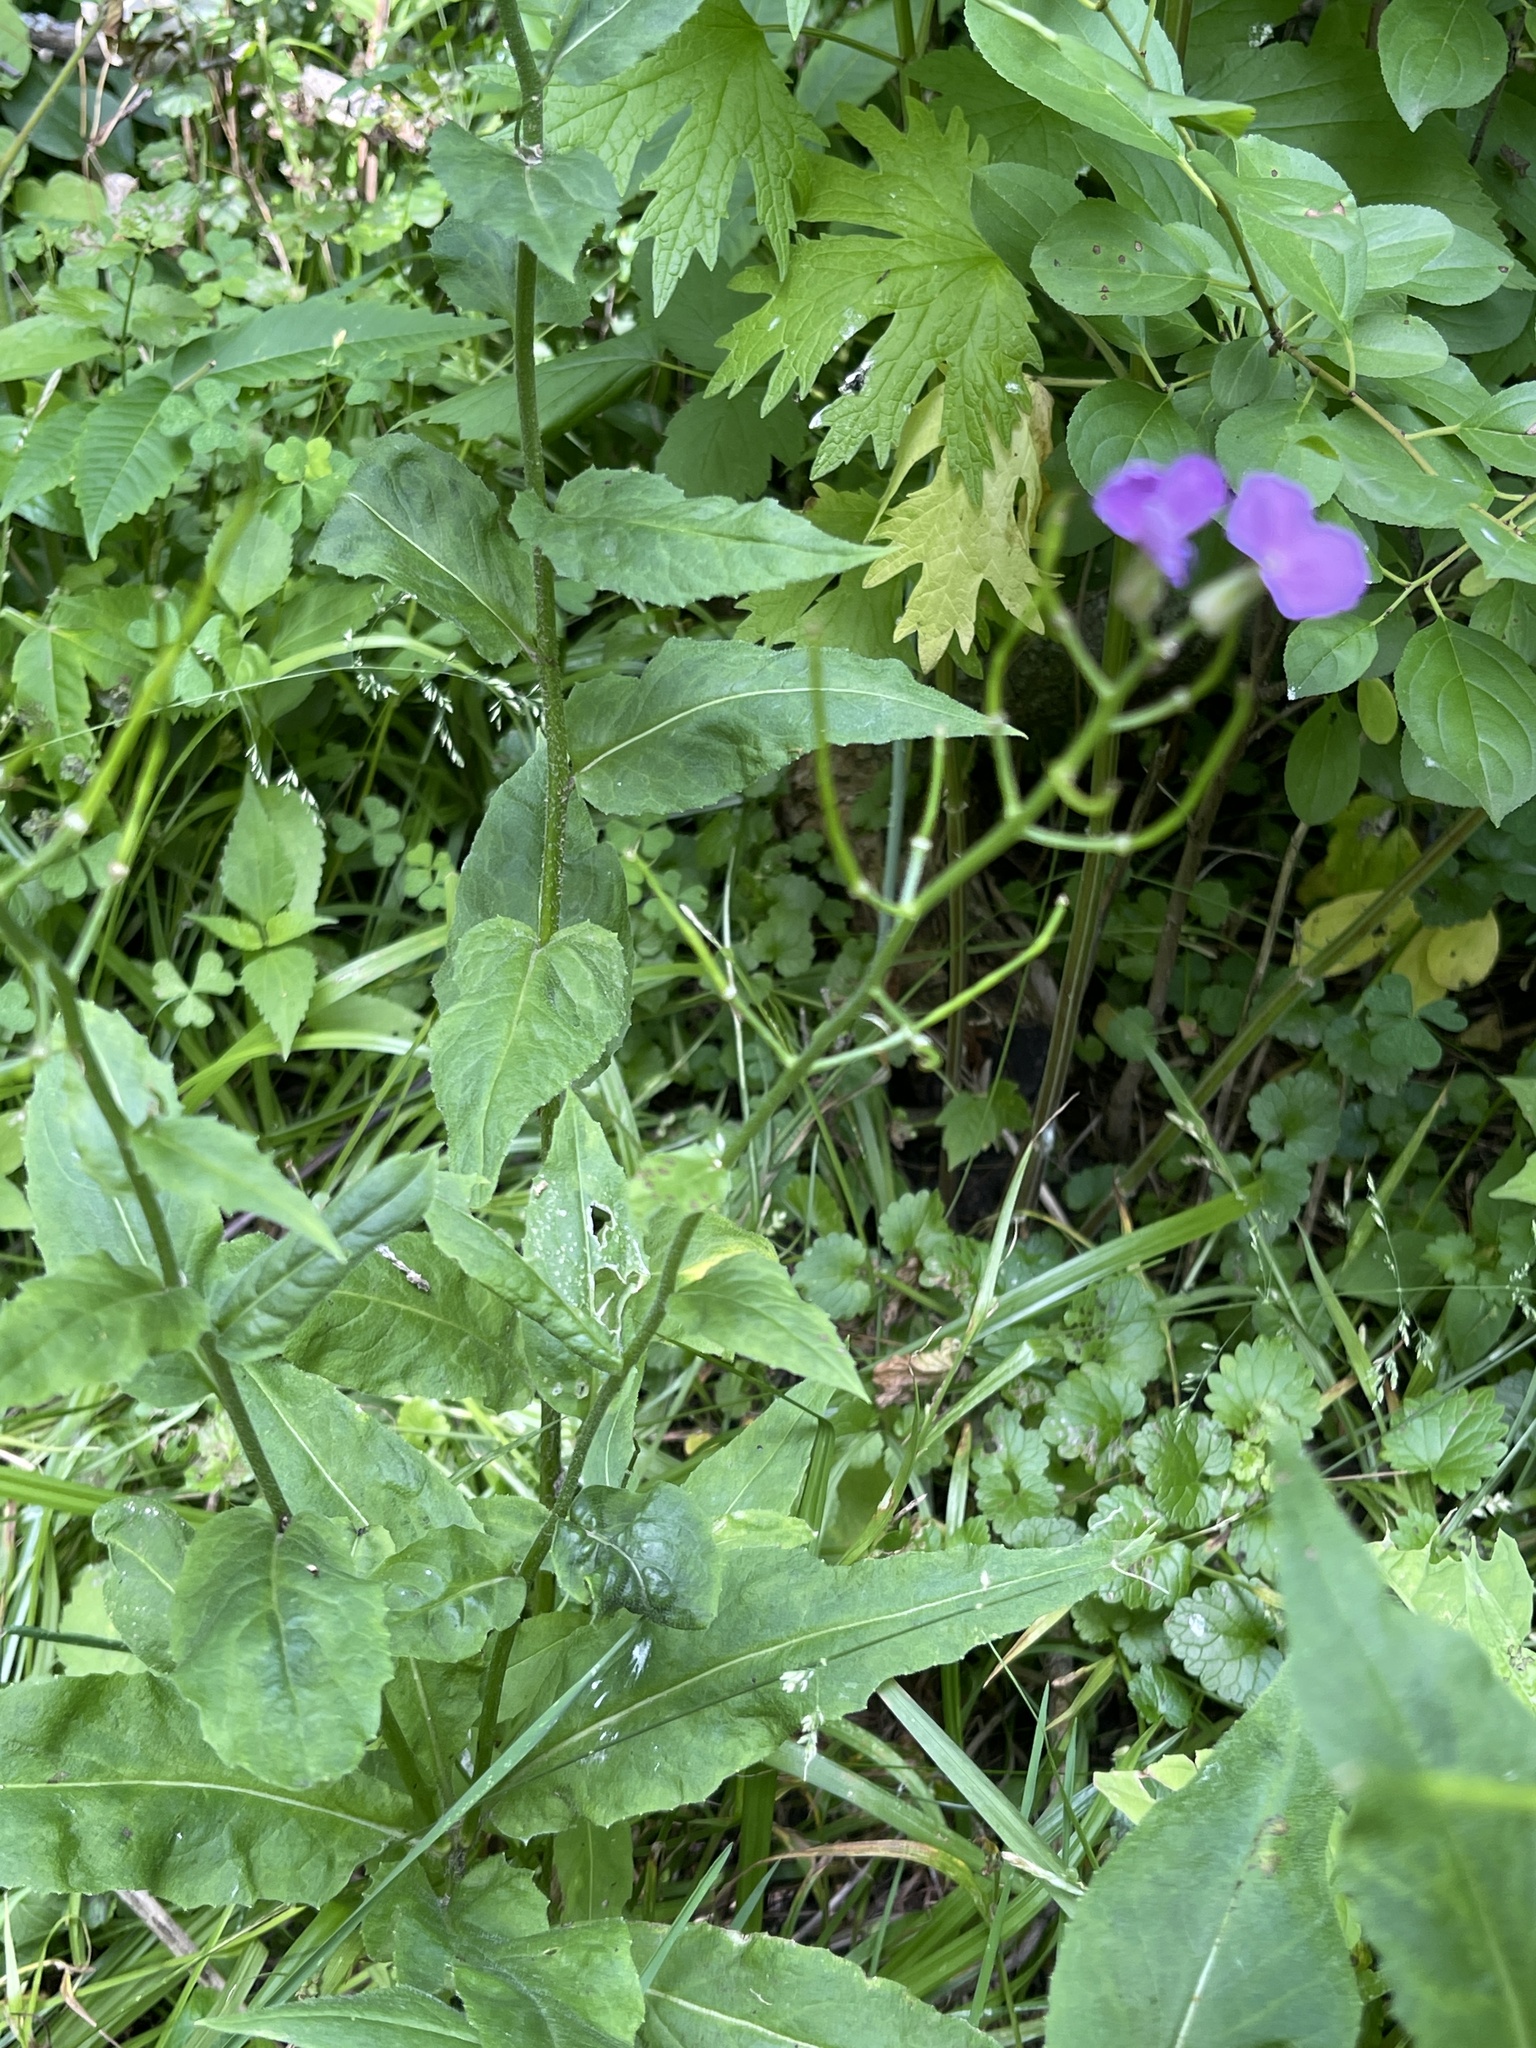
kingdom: Plantae
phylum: Tracheophyta
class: Magnoliopsida
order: Brassicales
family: Brassicaceae
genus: Hesperis
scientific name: Hesperis matronalis
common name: Dame's-violet
